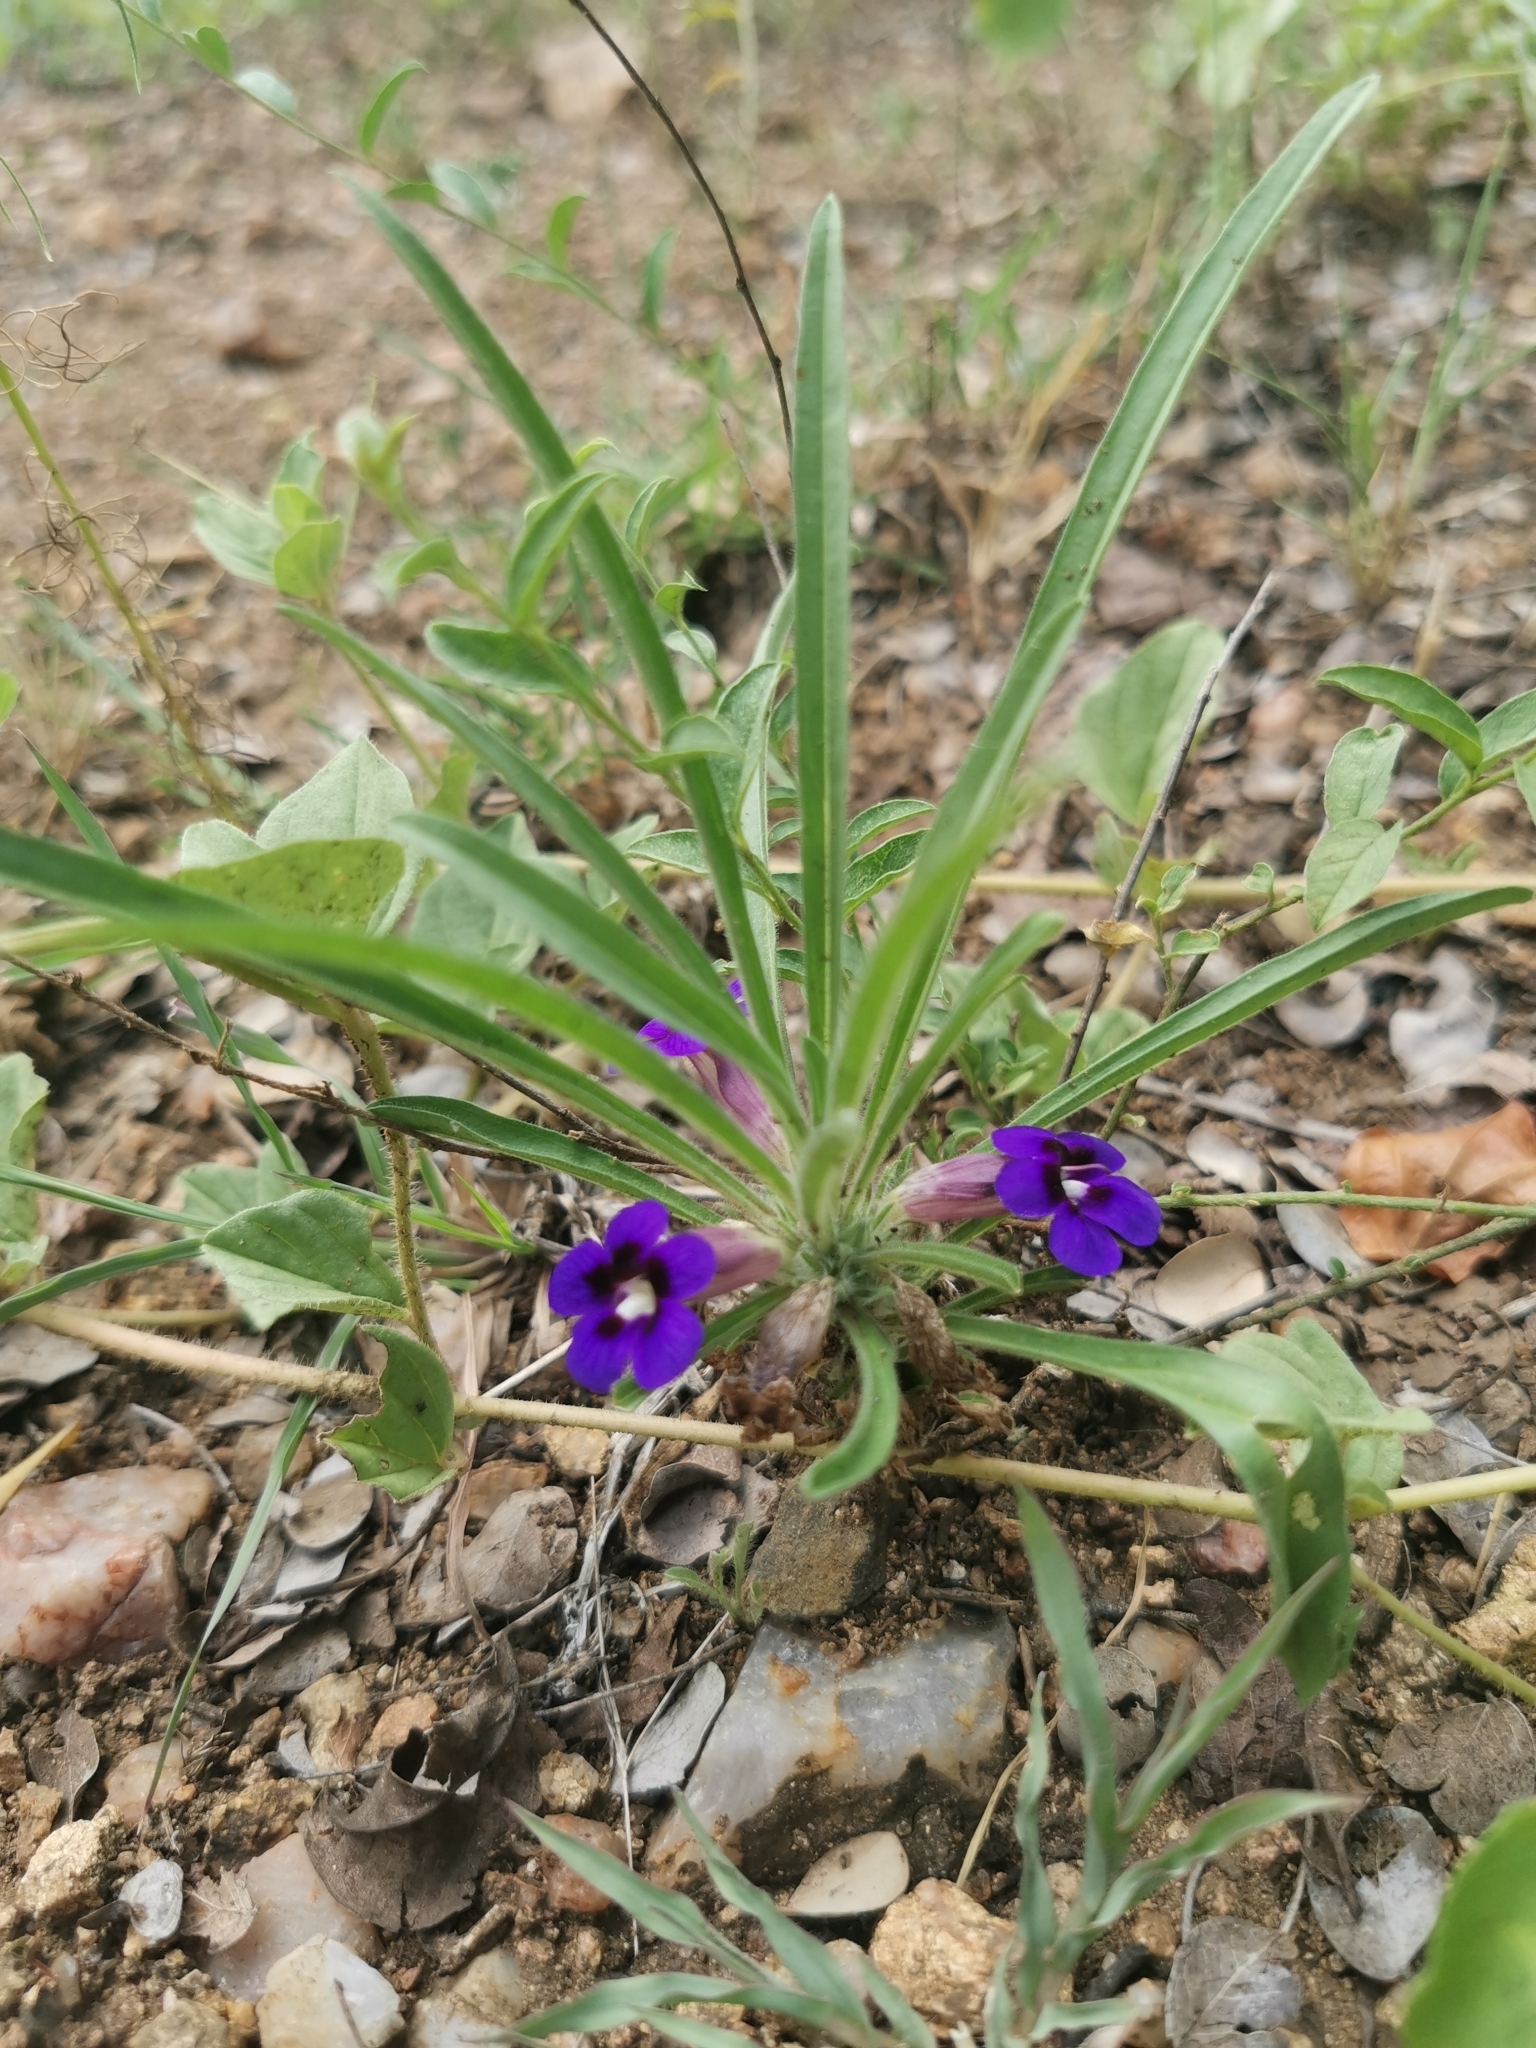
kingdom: Plantae
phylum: Tracheophyta
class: Magnoliopsida
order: Lamiales
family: Scrophulariaceae
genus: Aptosimum
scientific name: Aptosimum lineare
